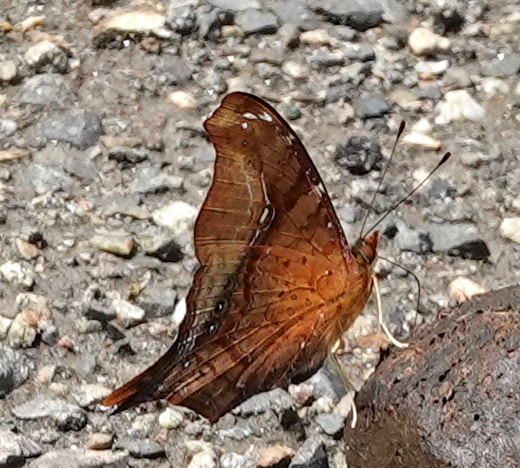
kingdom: Animalia
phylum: Arthropoda
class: Insecta
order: Lepidoptera
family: Nymphalidae
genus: Hypanartia
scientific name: Hypanartia dione
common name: Banded mapwing
